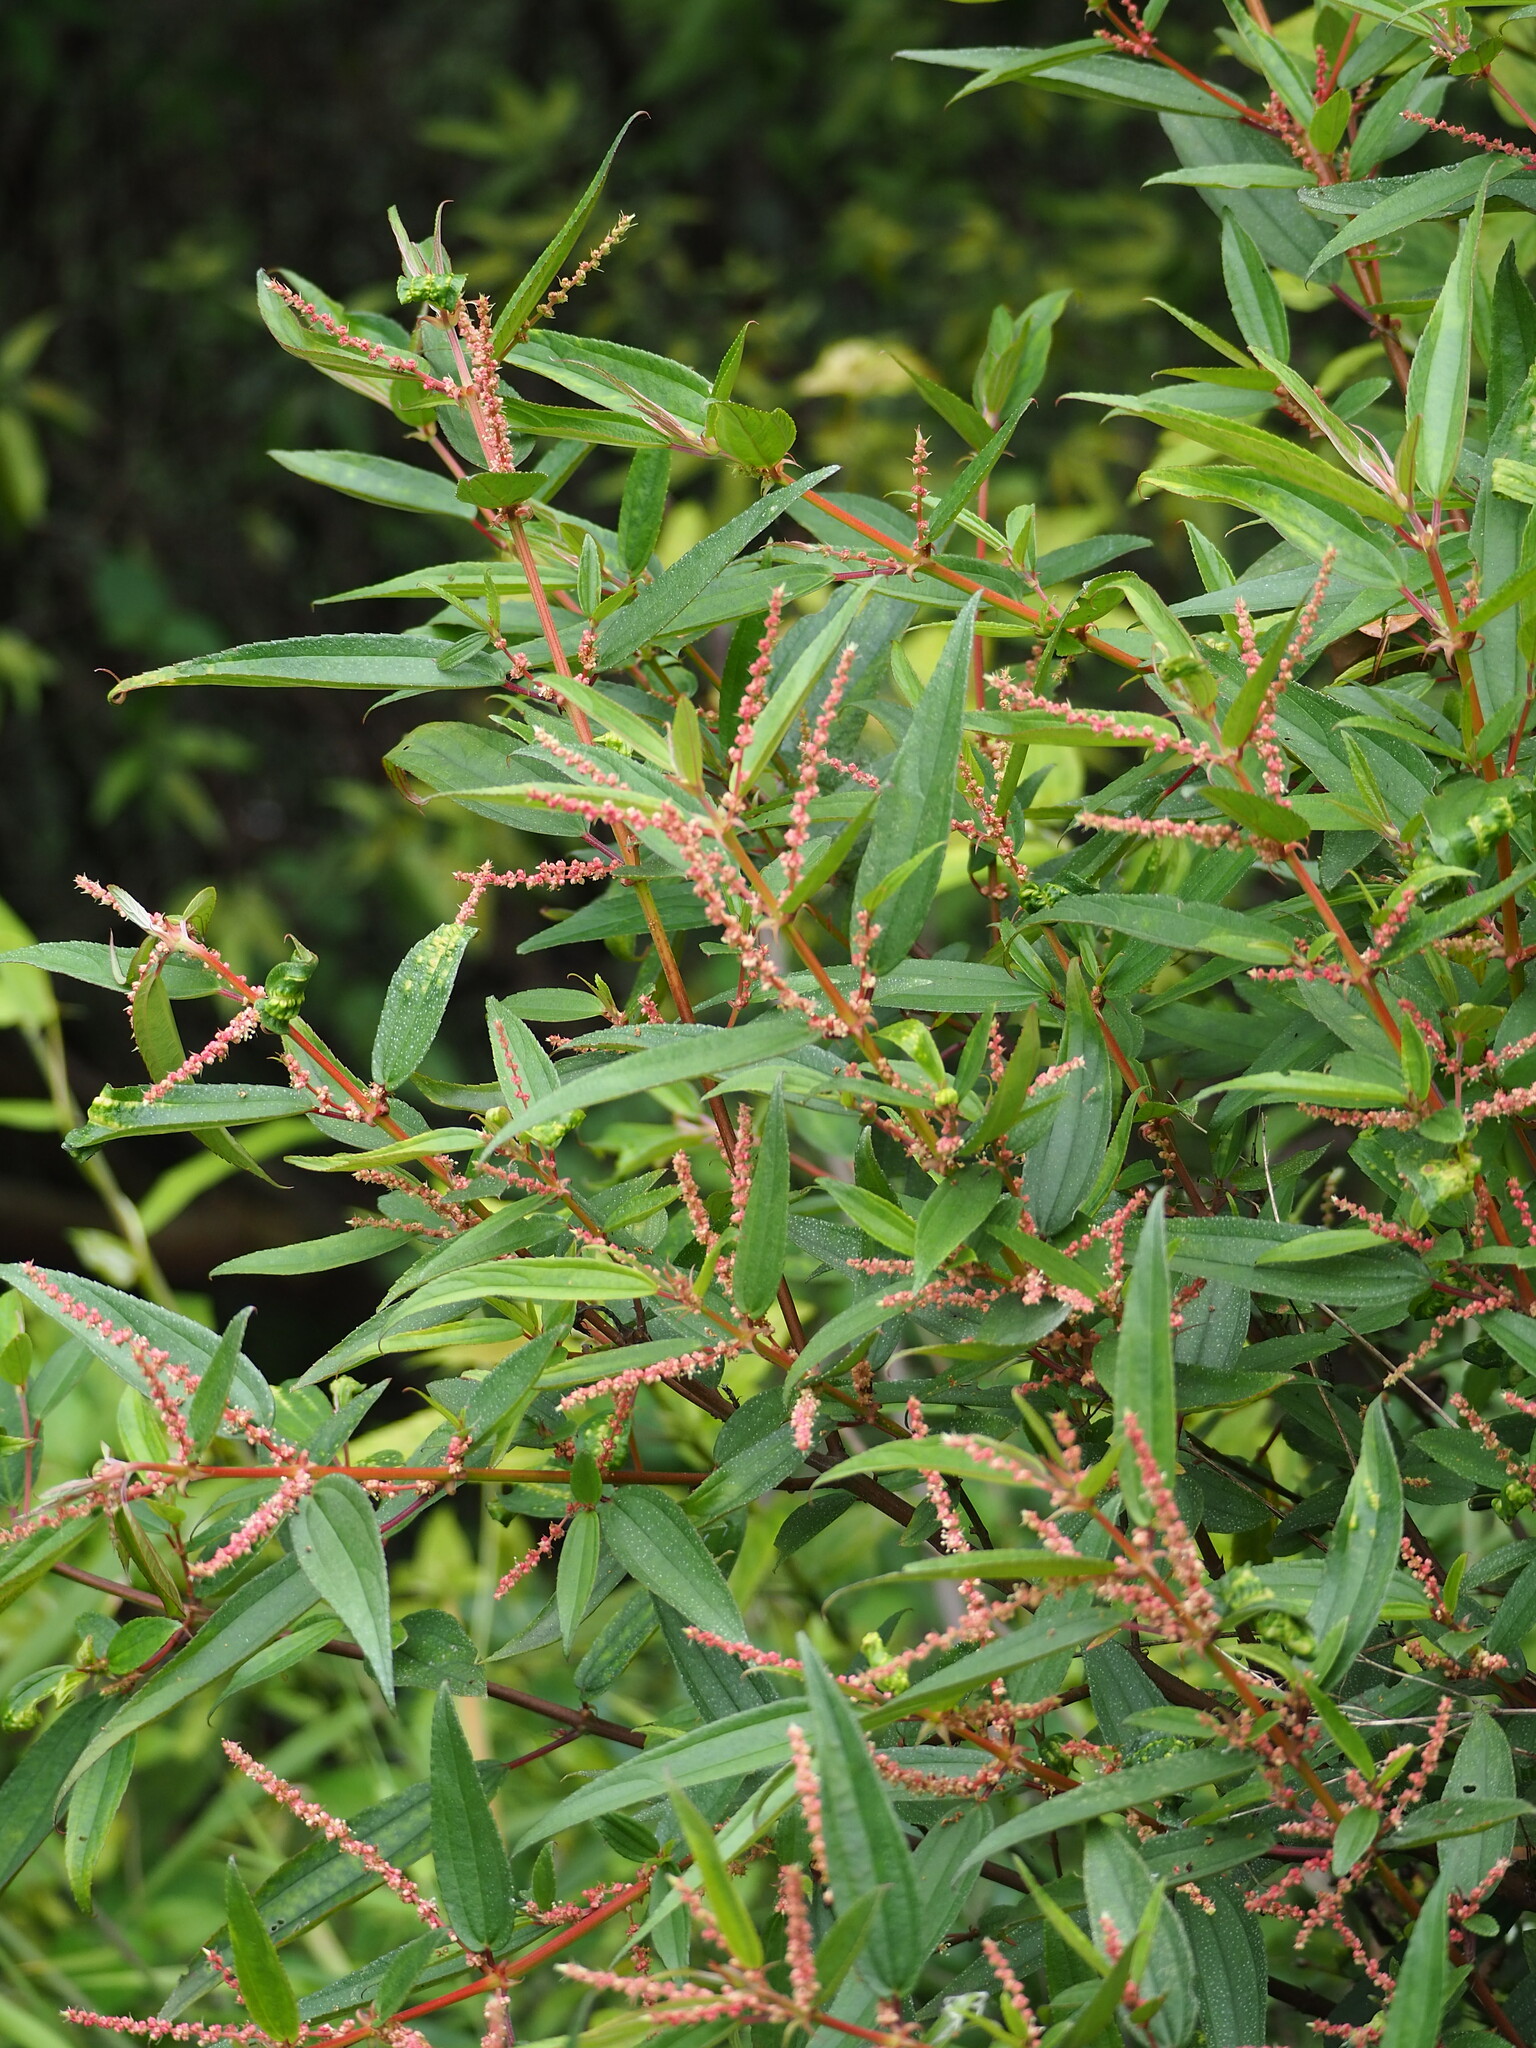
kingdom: Plantae
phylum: Tracheophyta
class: Magnoliopsida
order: Rosales
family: Urticaceae
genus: Boehmeria
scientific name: Boehmeria densiflora
